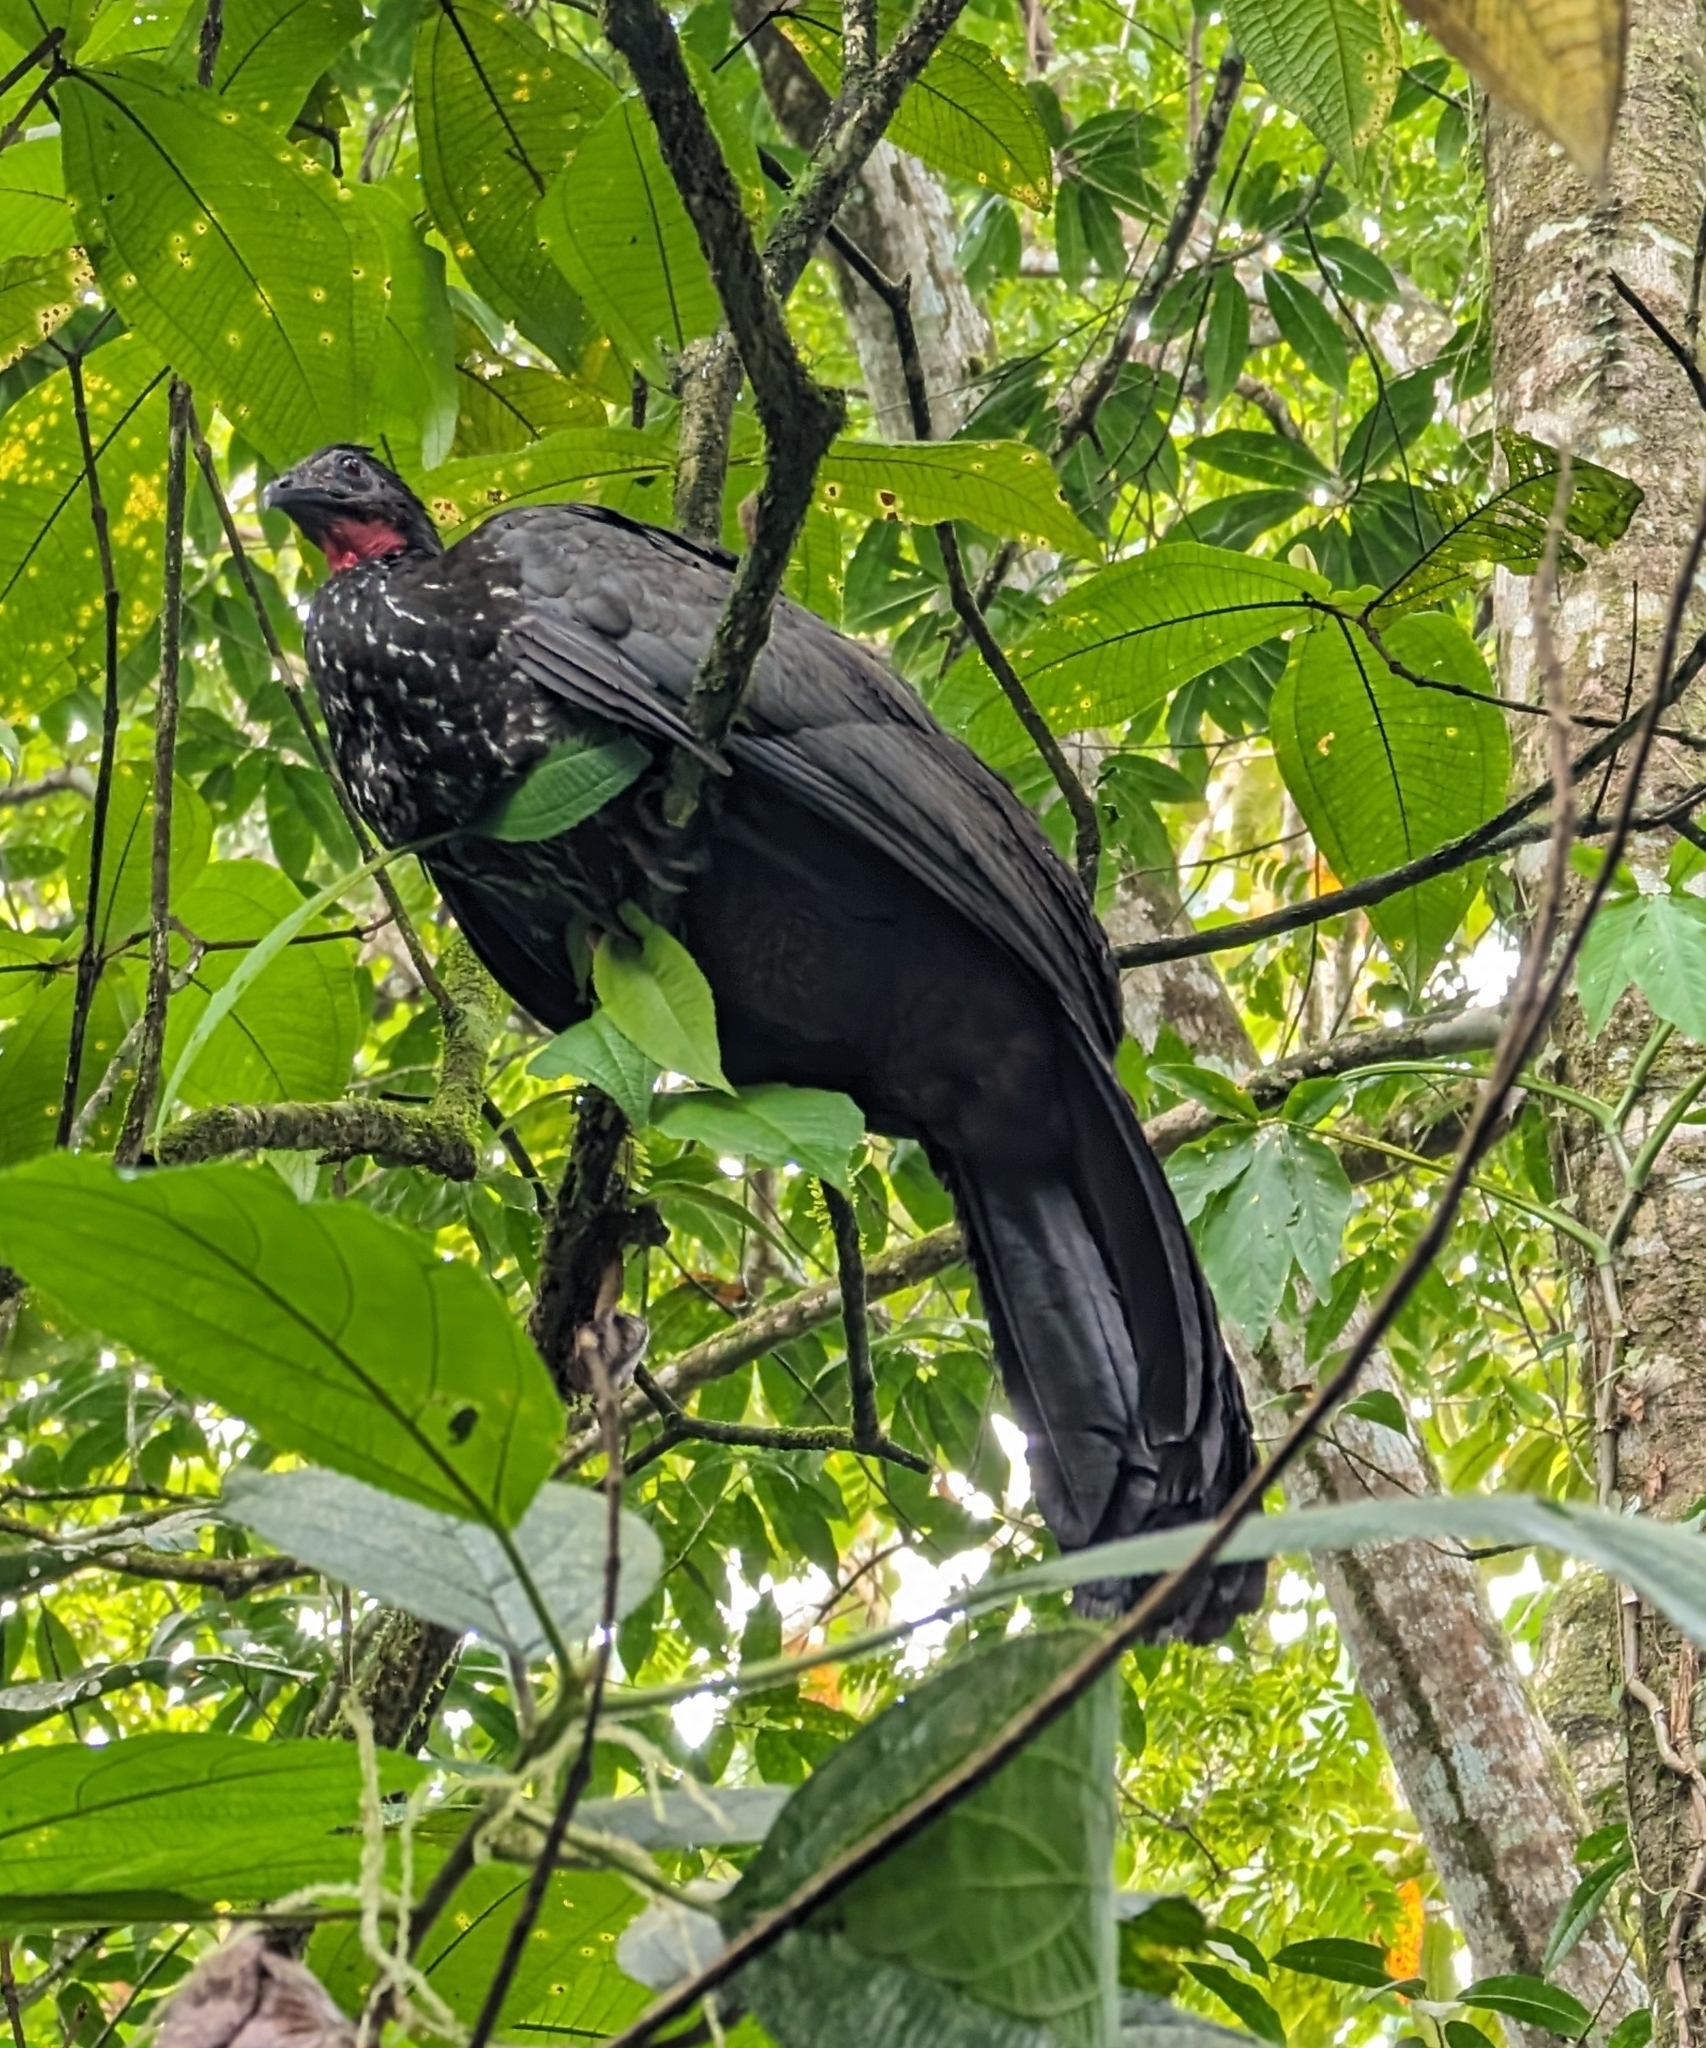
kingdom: Animalia
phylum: Chordata
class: Aves
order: Galliformes
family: Cracidae
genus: Penelope
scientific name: Penelope purpurascens
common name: Crested guan
